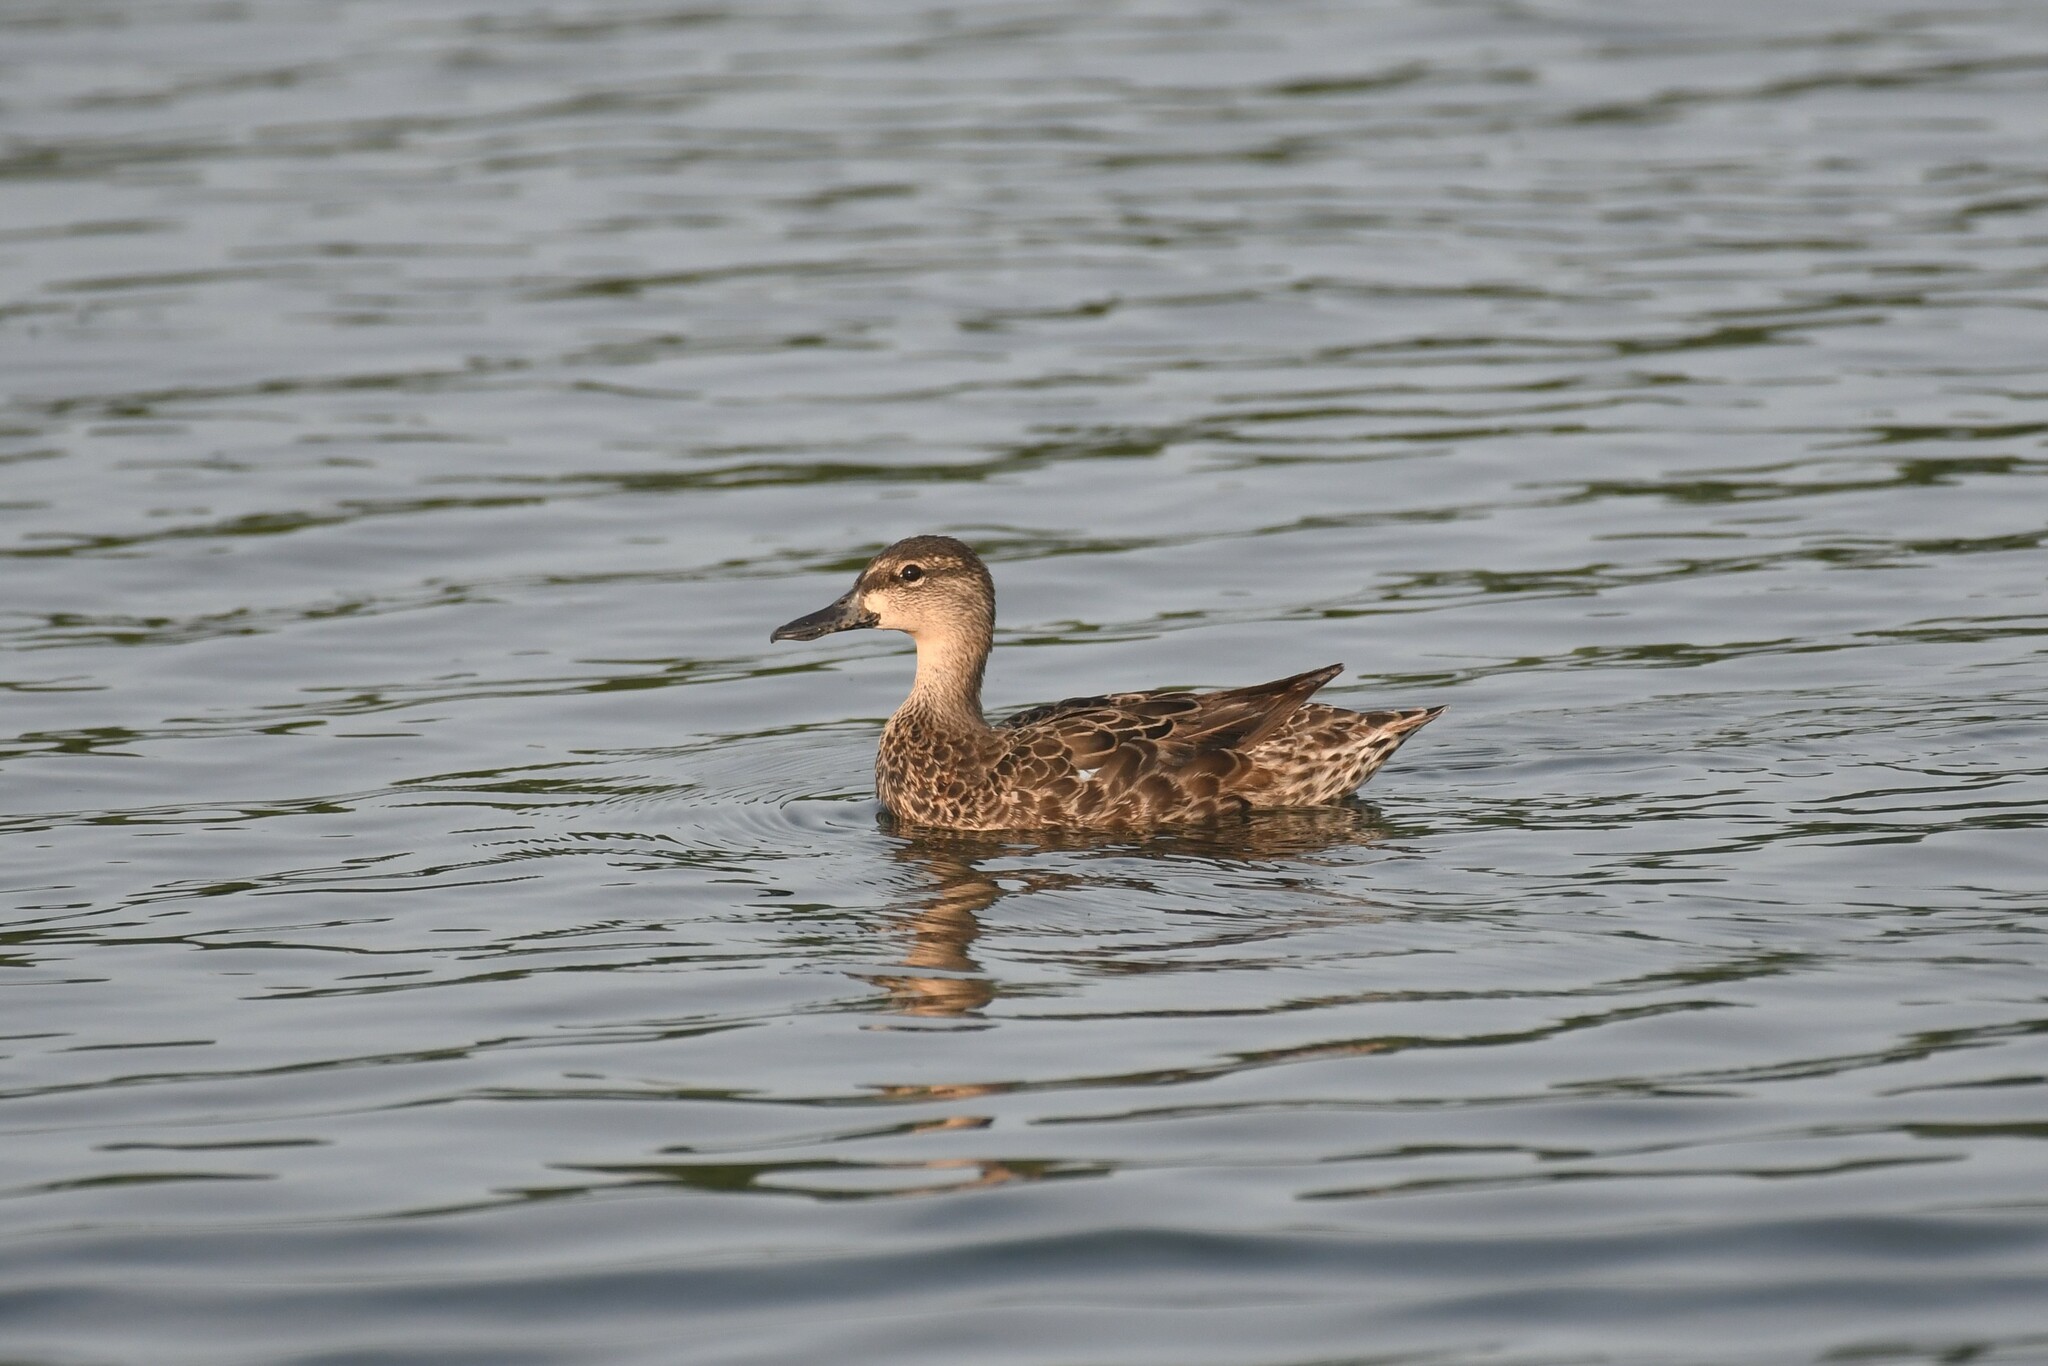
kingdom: Animalia
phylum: Chordata
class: Aves
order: Anseriformes
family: Anatidae
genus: Spatula
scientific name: Spatula discors
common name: Blue-winged teal
